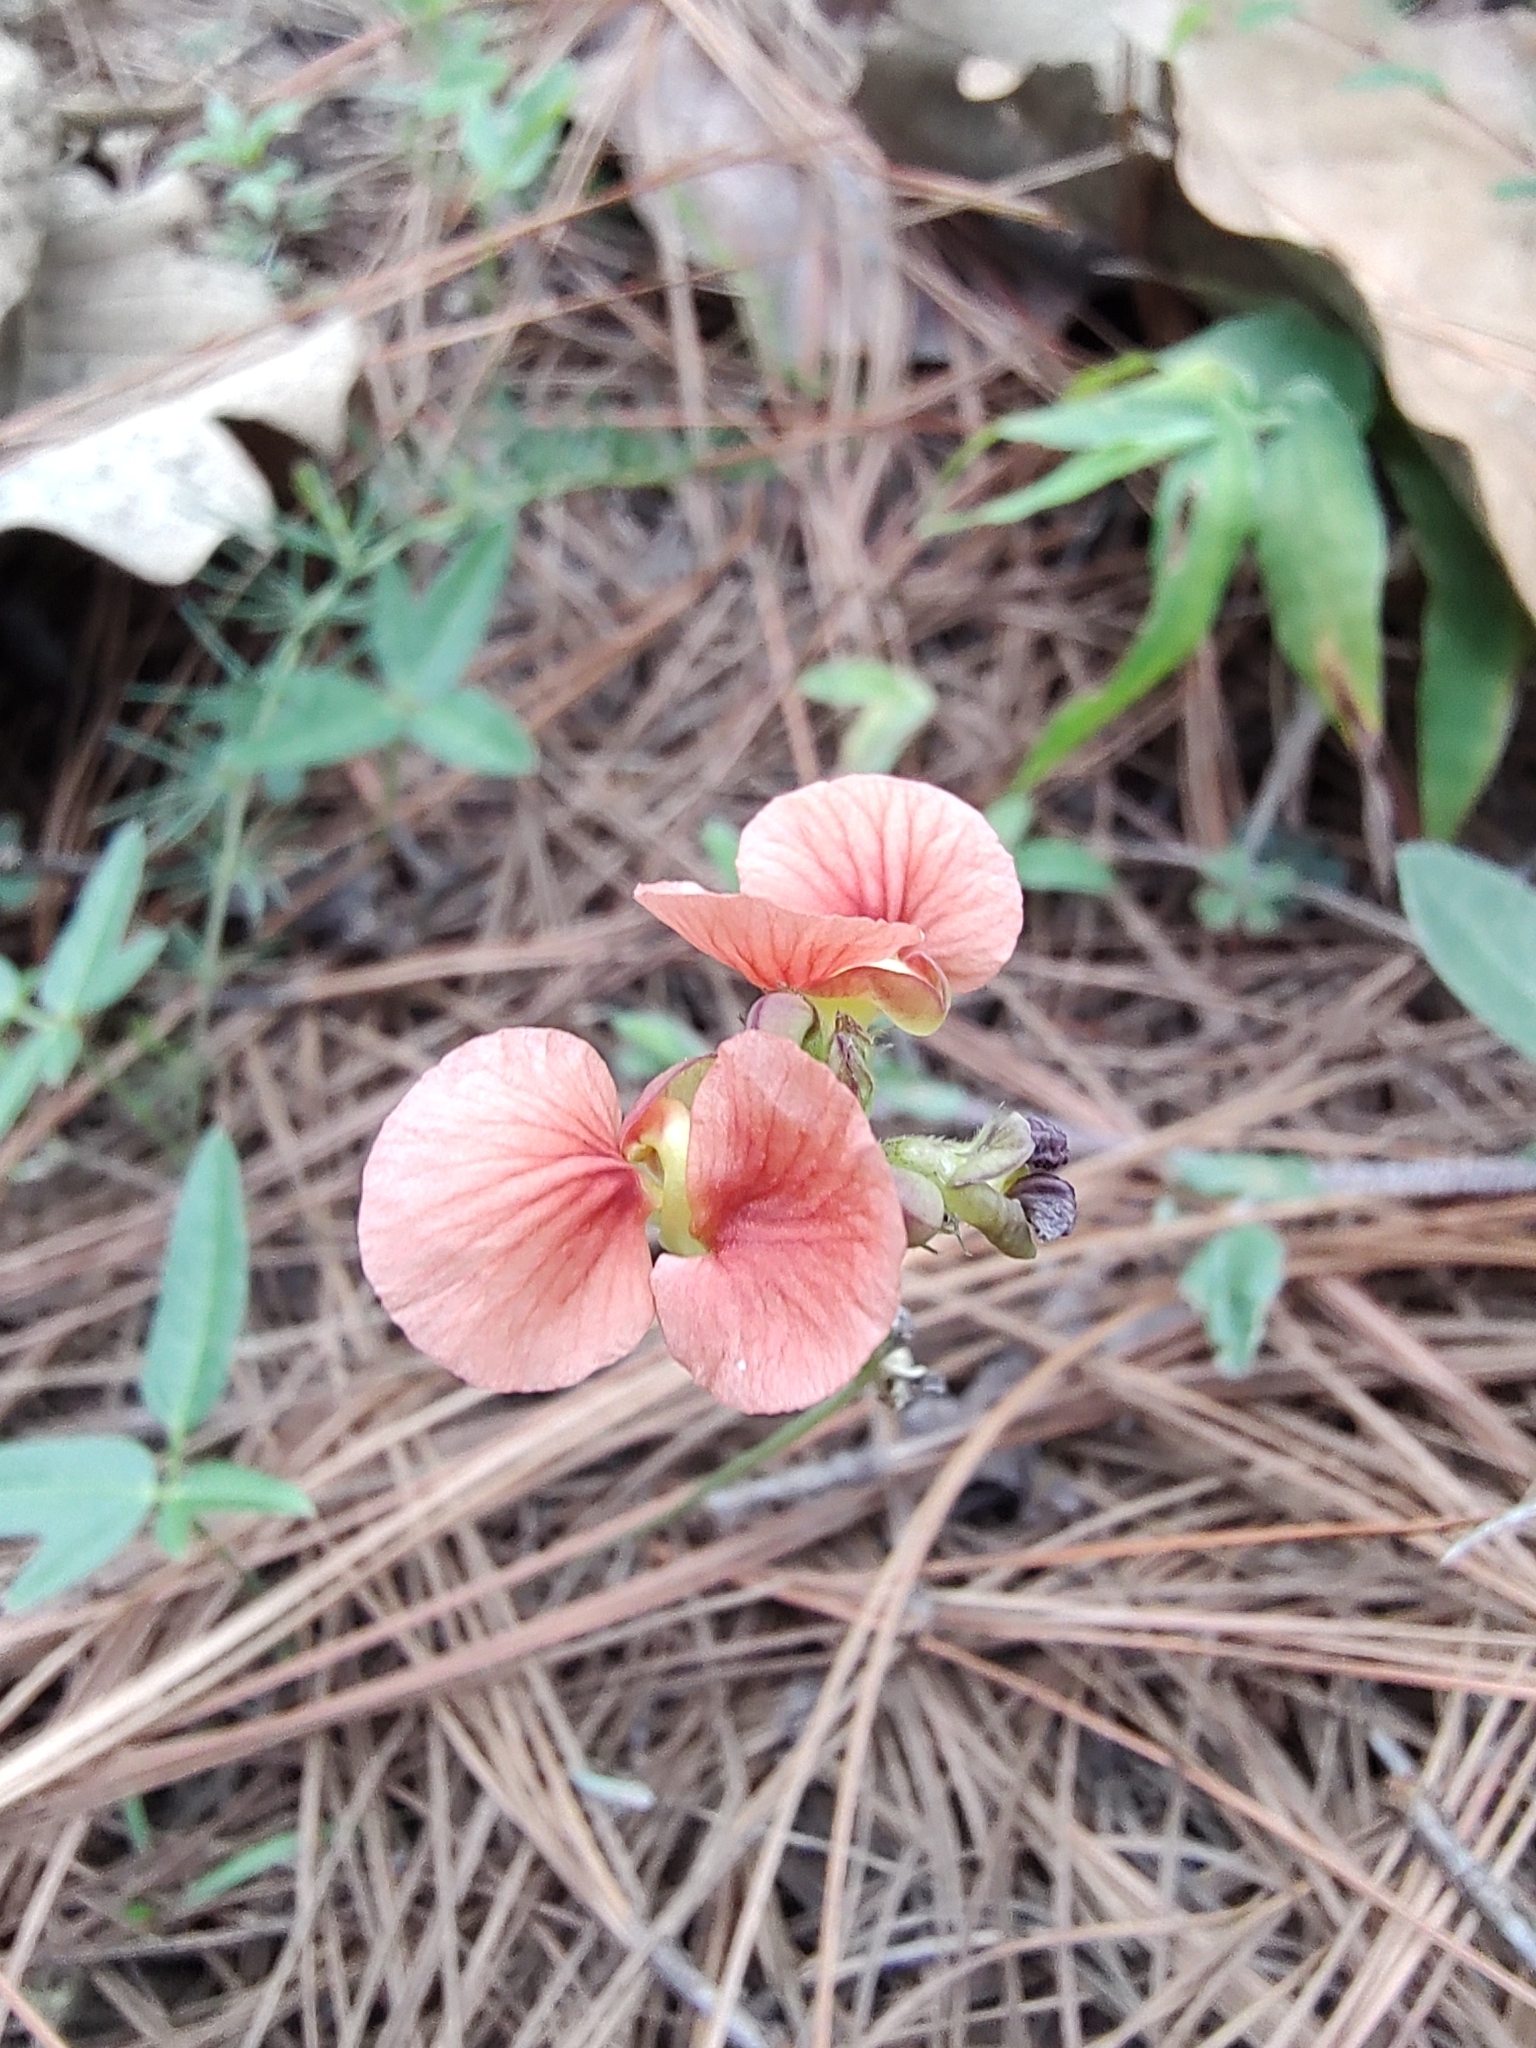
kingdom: Plantae
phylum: Tracheophyta
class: Magnoliopsida
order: Fabales
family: Fabaceae
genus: Macroptilium
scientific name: Macroptilium gibbosifolium
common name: Variableleaf bushbean
